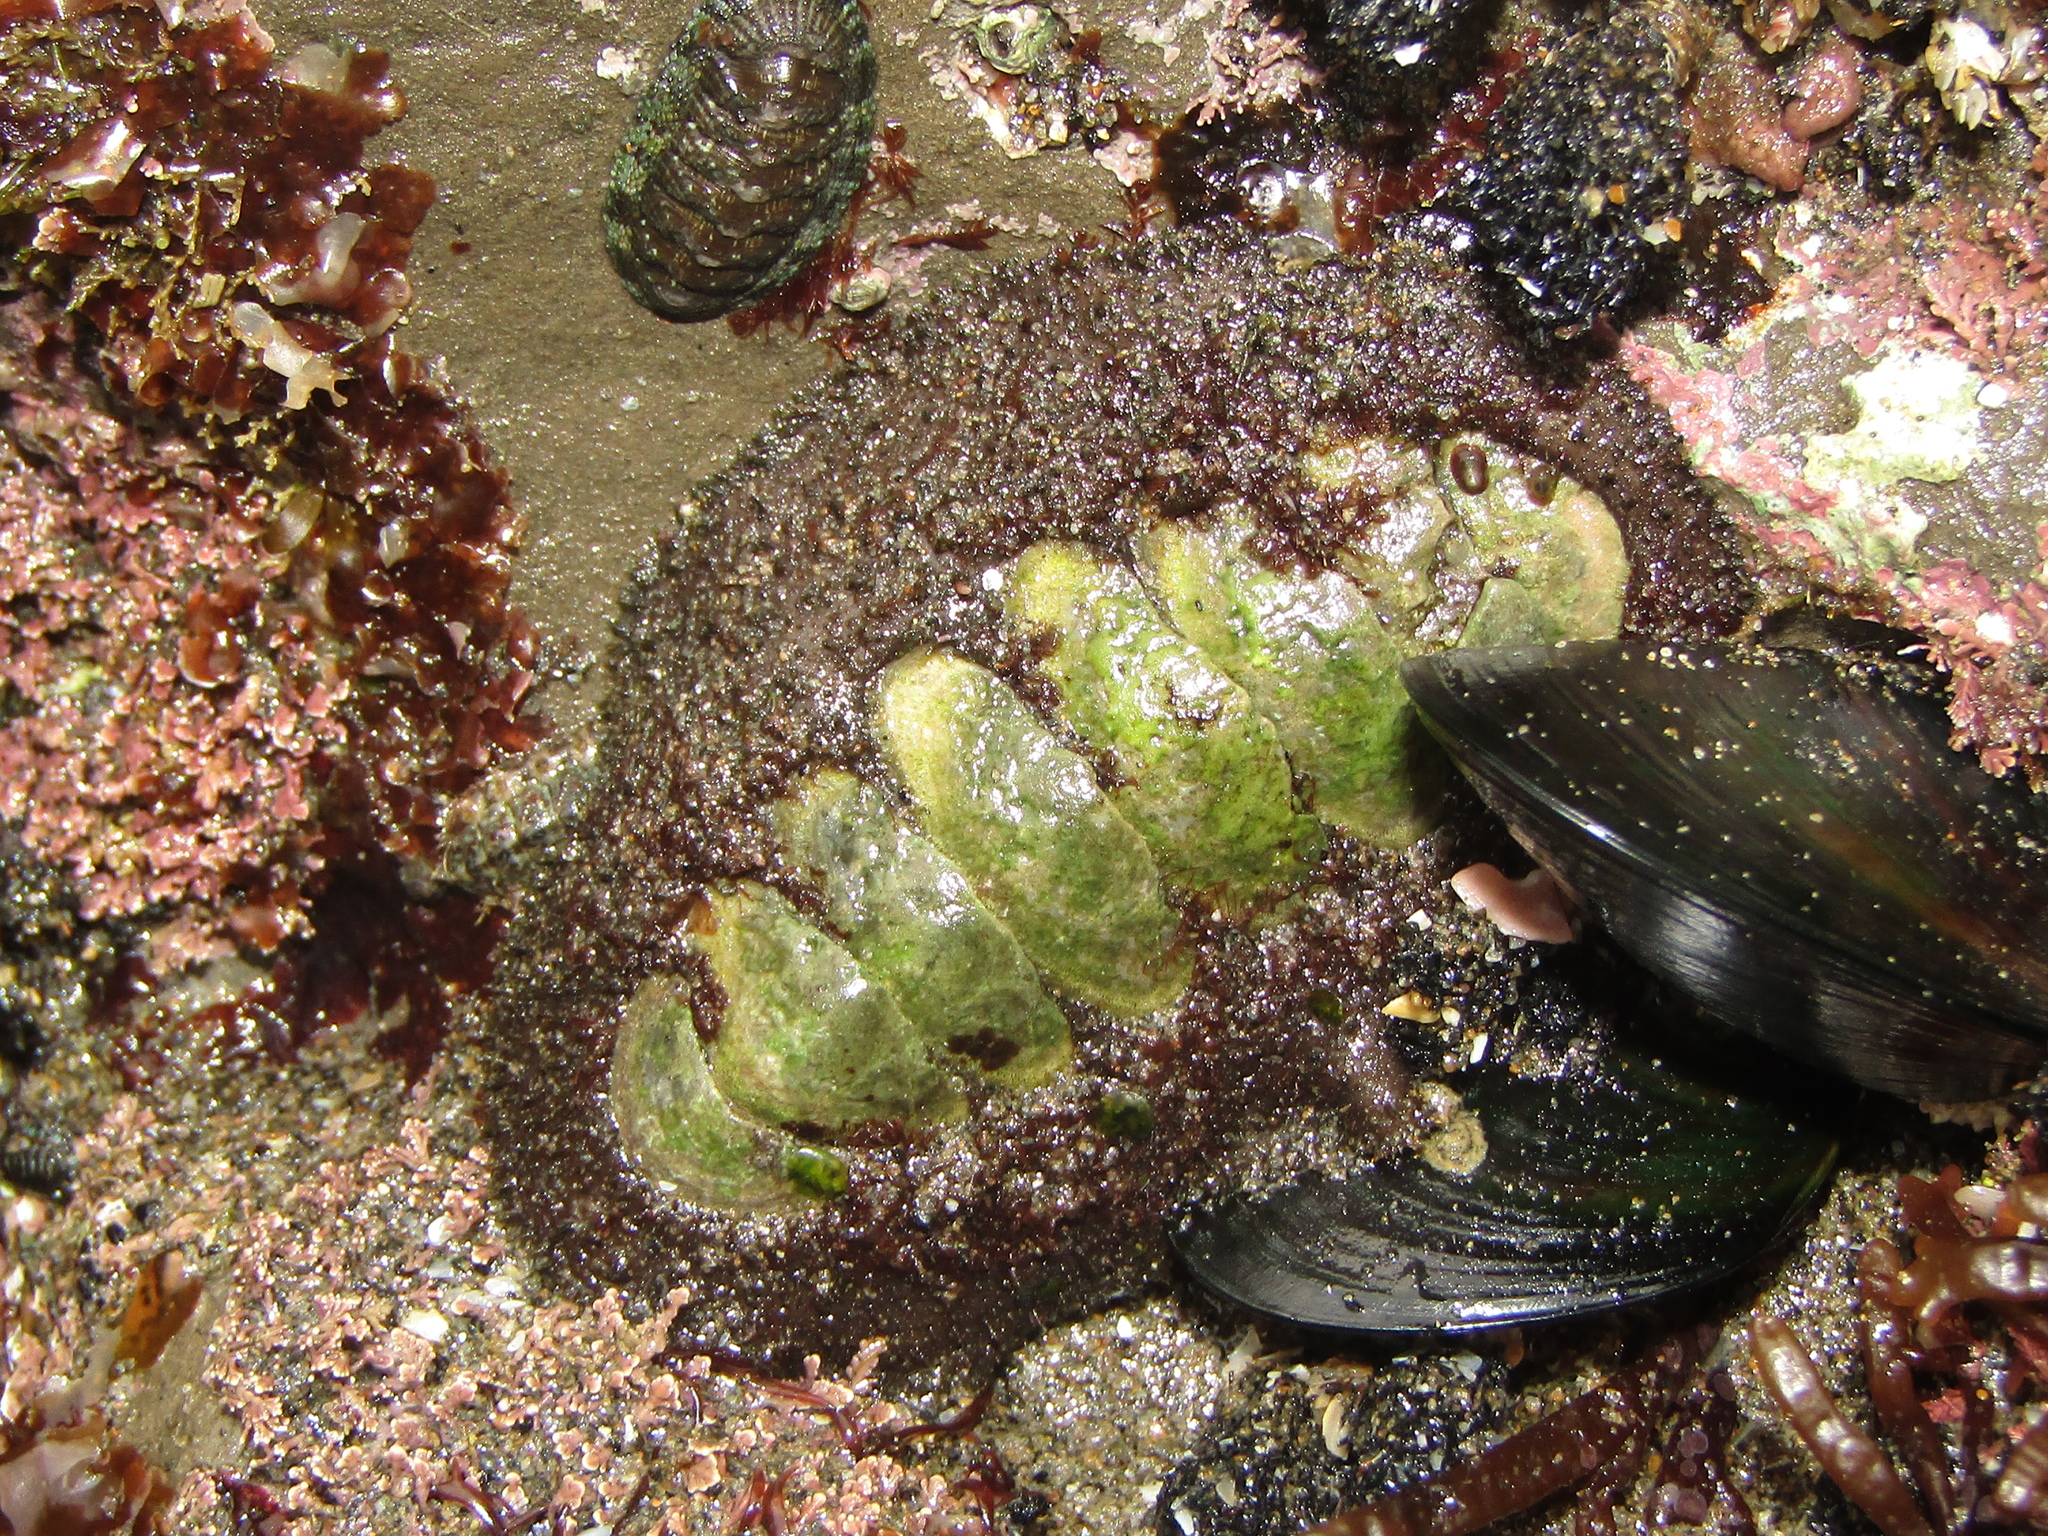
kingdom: Animalia
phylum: Mollusca
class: Polyplacophora
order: Chitonida
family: Mopaliidae
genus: Plaxiphora
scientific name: Plaxiphora obtecta
